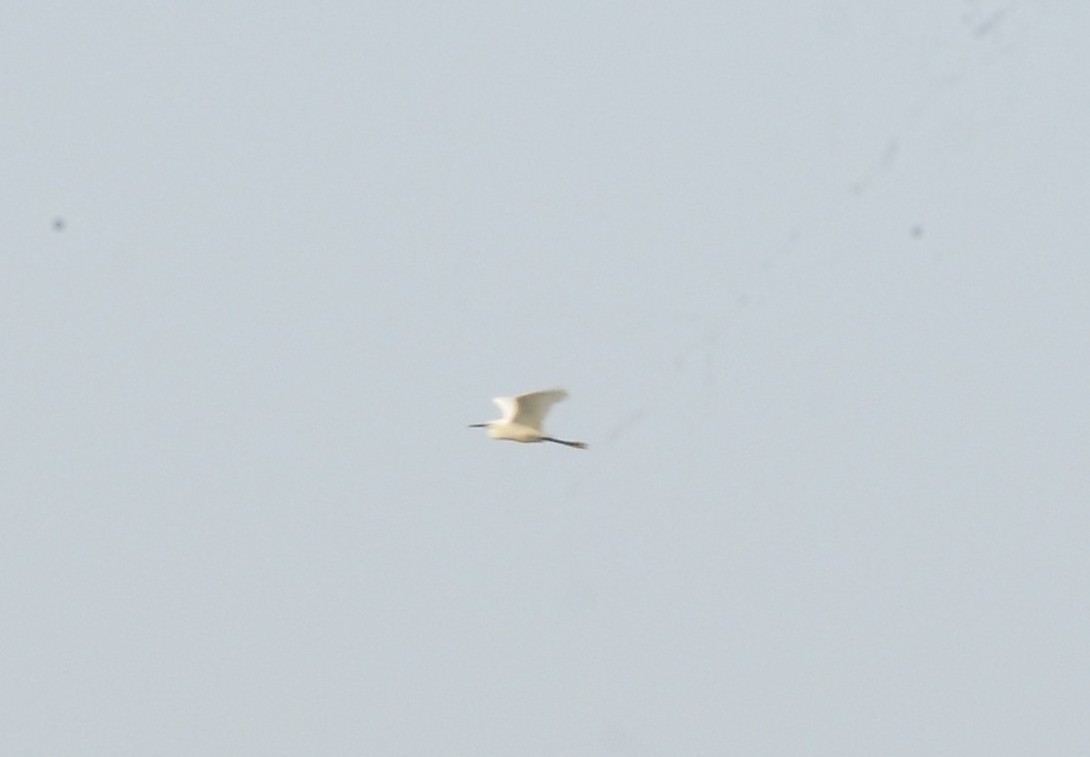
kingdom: Animalia
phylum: Chordata
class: Aves
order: Pelecaniformes
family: Ardeidae
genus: Egretta
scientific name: Egretta garzetta
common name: Little egret
